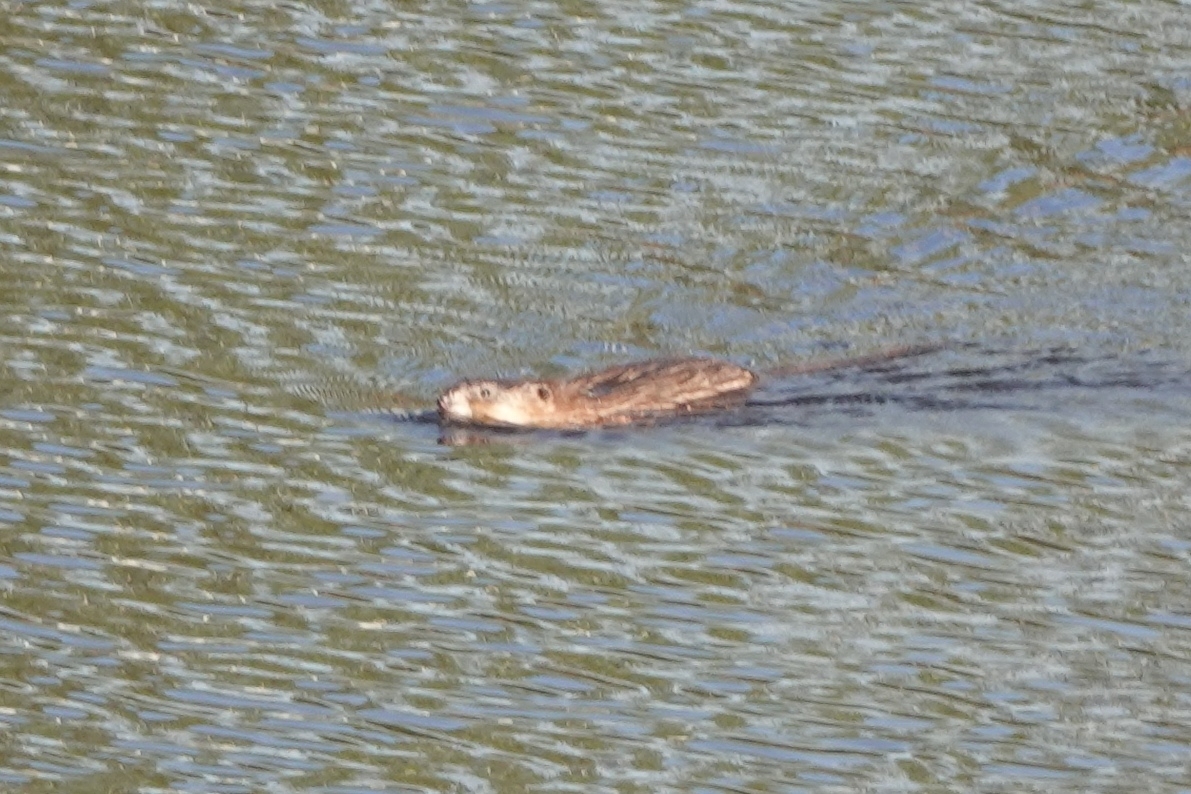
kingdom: Animalia
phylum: Chordata
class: Mammalia
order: Rodentia
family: Cricetidae
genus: Ondatra
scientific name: Ondatra zibethicus
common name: Muskrat
